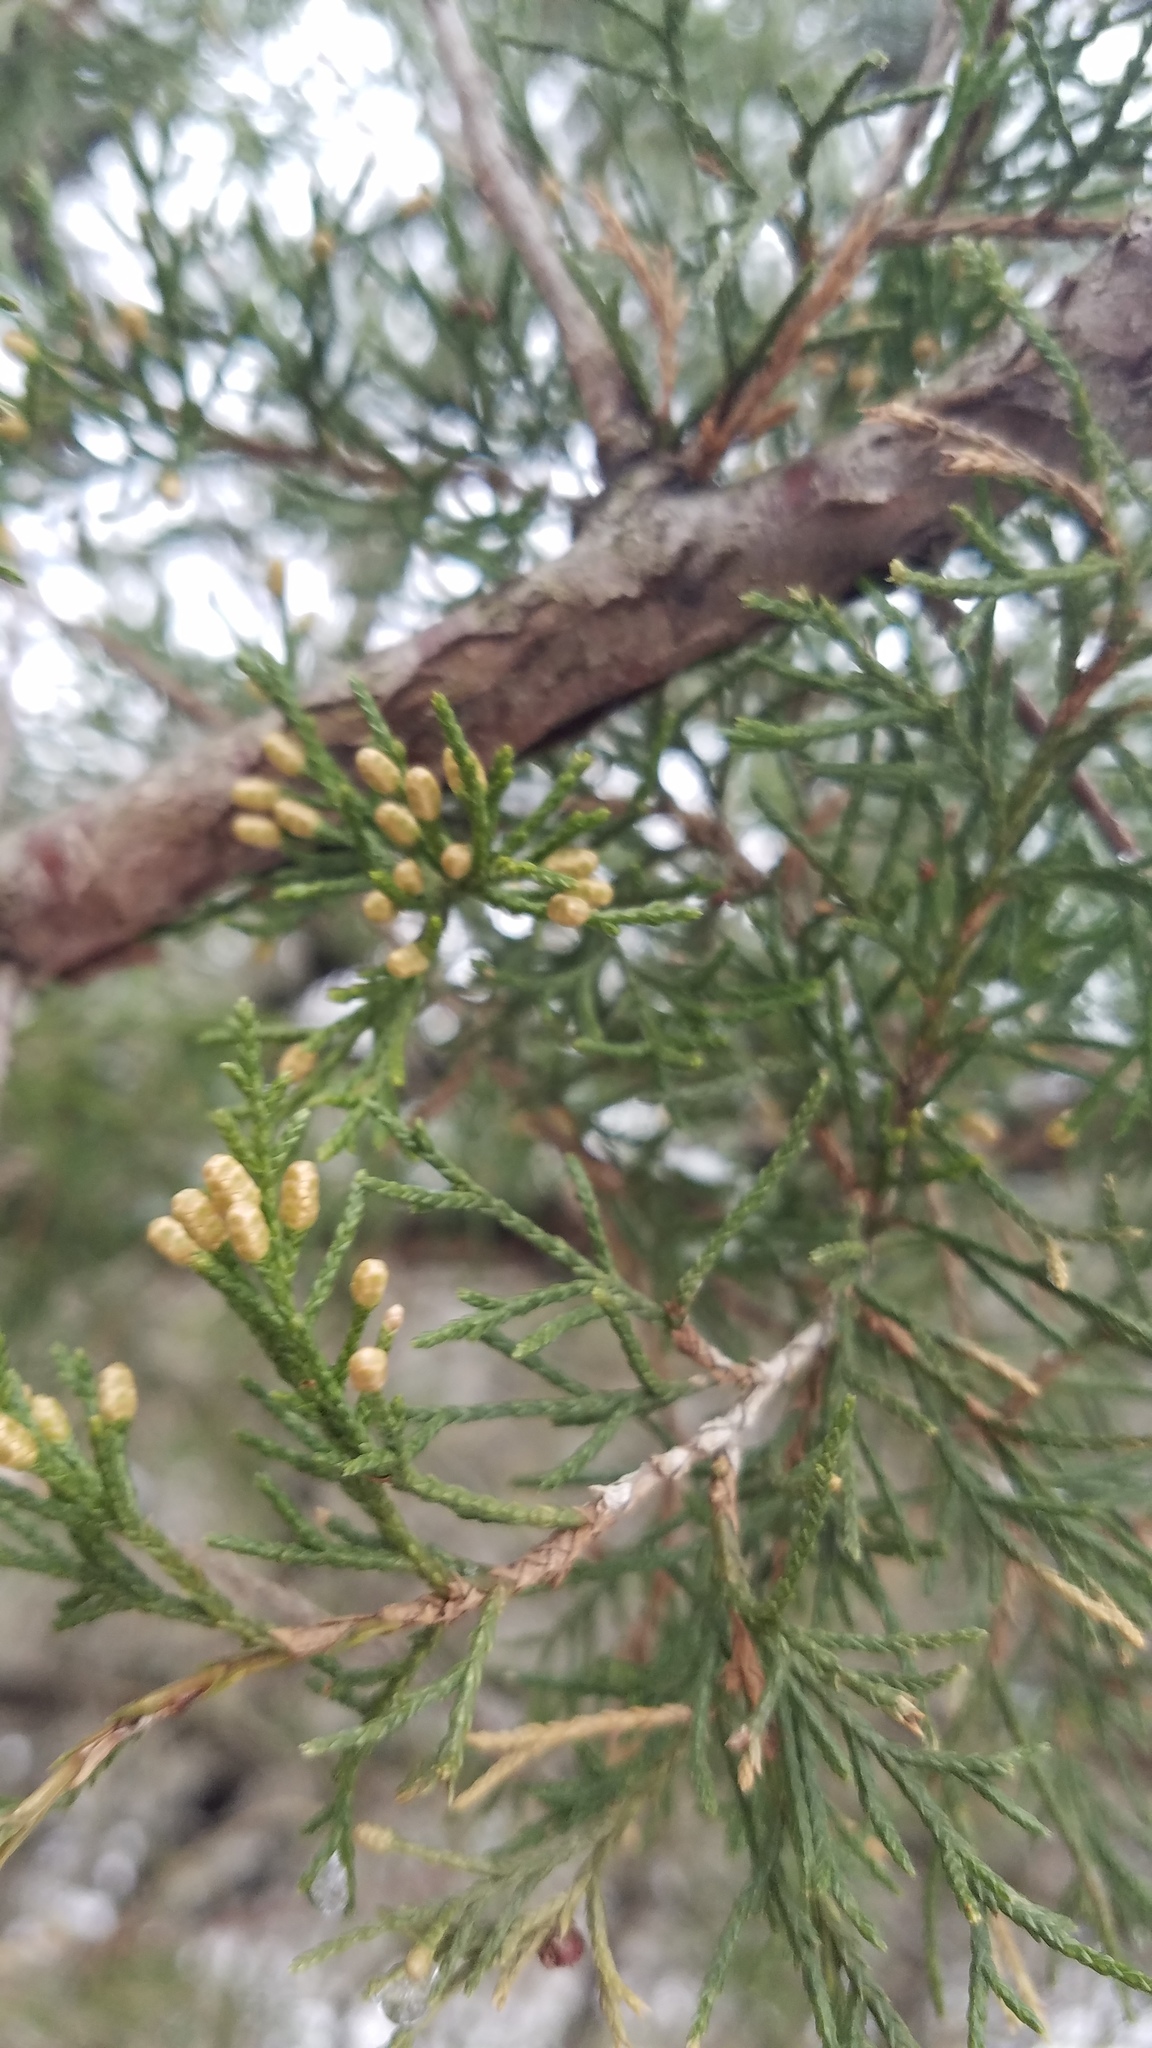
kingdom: Plantae
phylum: Tracheophyta
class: Pinopsida
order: Pinales
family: Cupressaceae
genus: Juniperus
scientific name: Juniperus virginiana
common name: Red juniper
